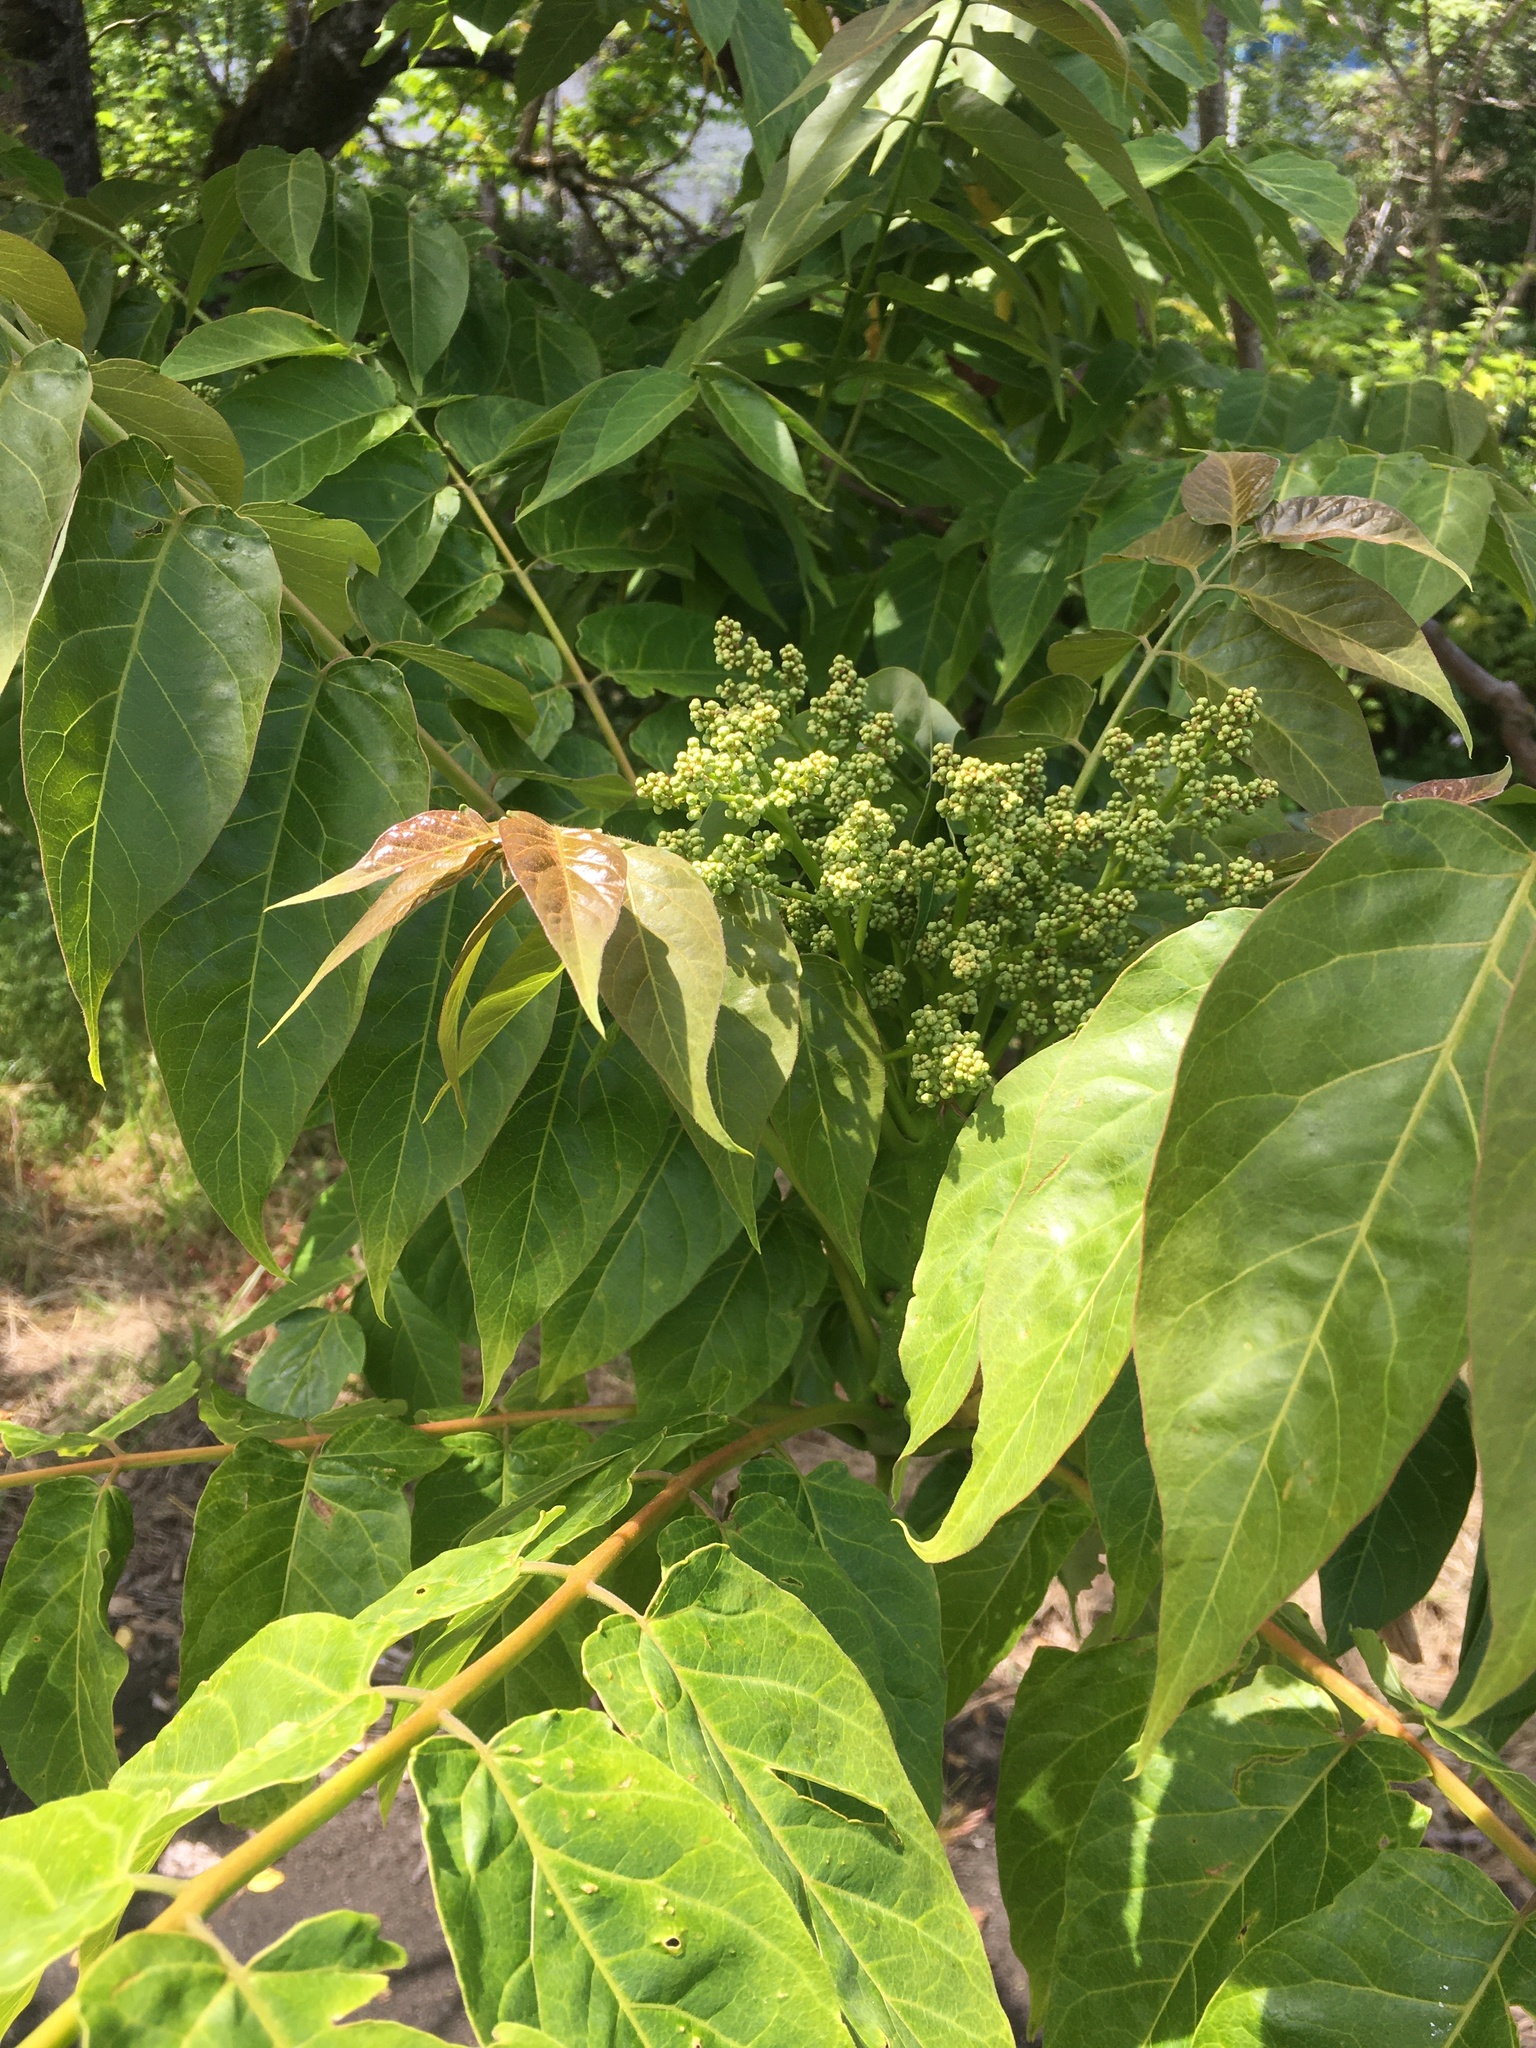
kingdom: Plantae
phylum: Tracheophyta
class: Magnoliopsida
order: Sapindales
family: Simaroubaceae
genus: Ailanthus
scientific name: Ailanthus altissima
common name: Tree-of-heaven
